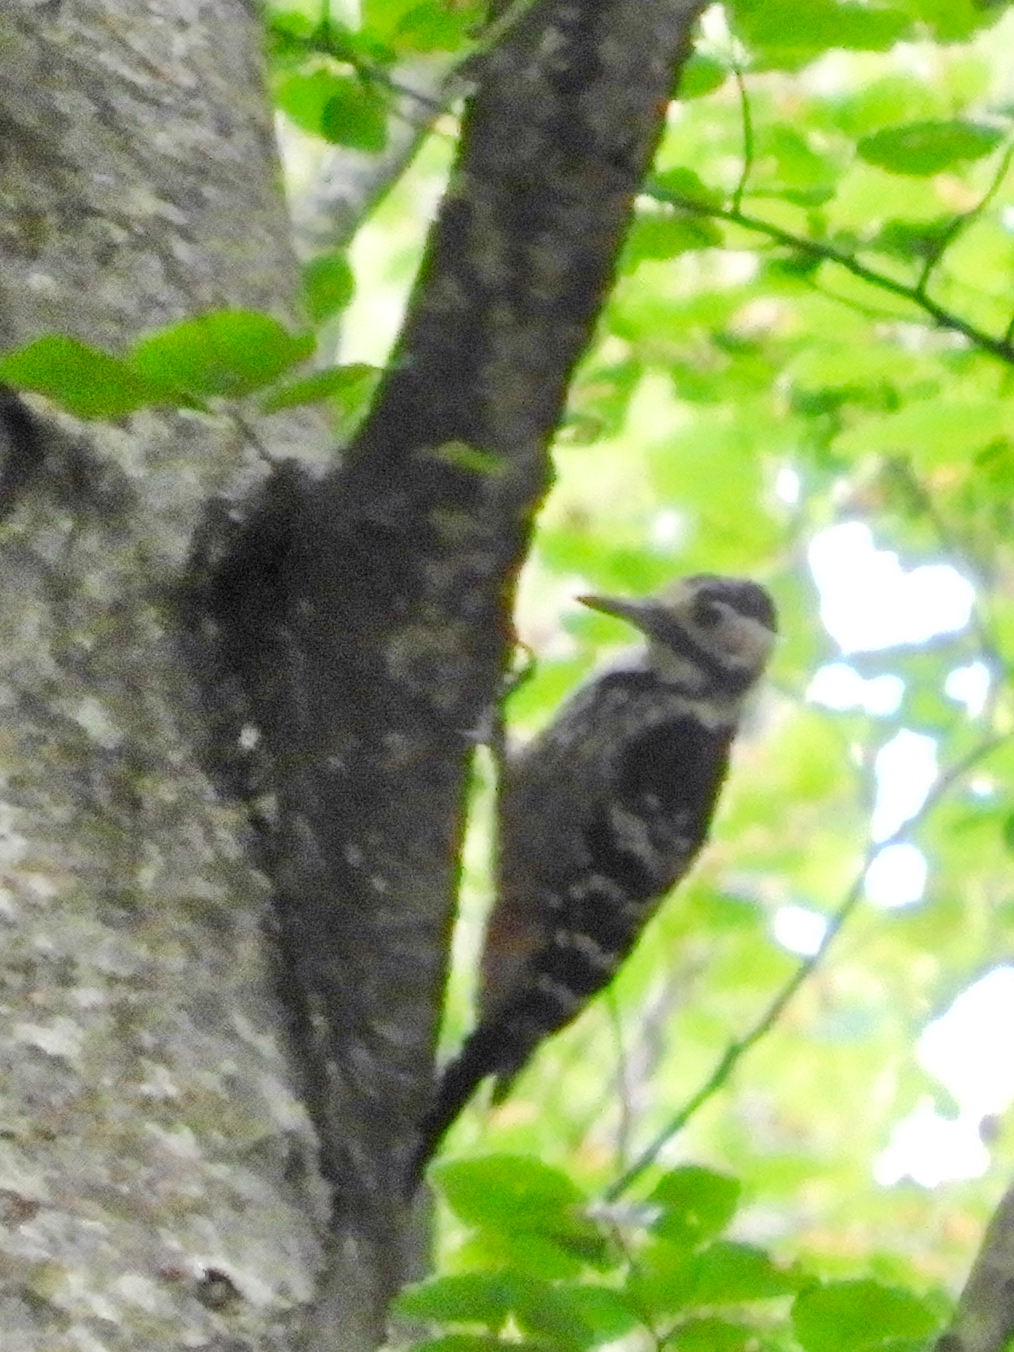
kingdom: Animalia
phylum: Chordata
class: Aves
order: Piciformes
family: Picidae
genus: Dendrocopos
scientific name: Dendrocopos leucotos
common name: White-backed woodpecker
